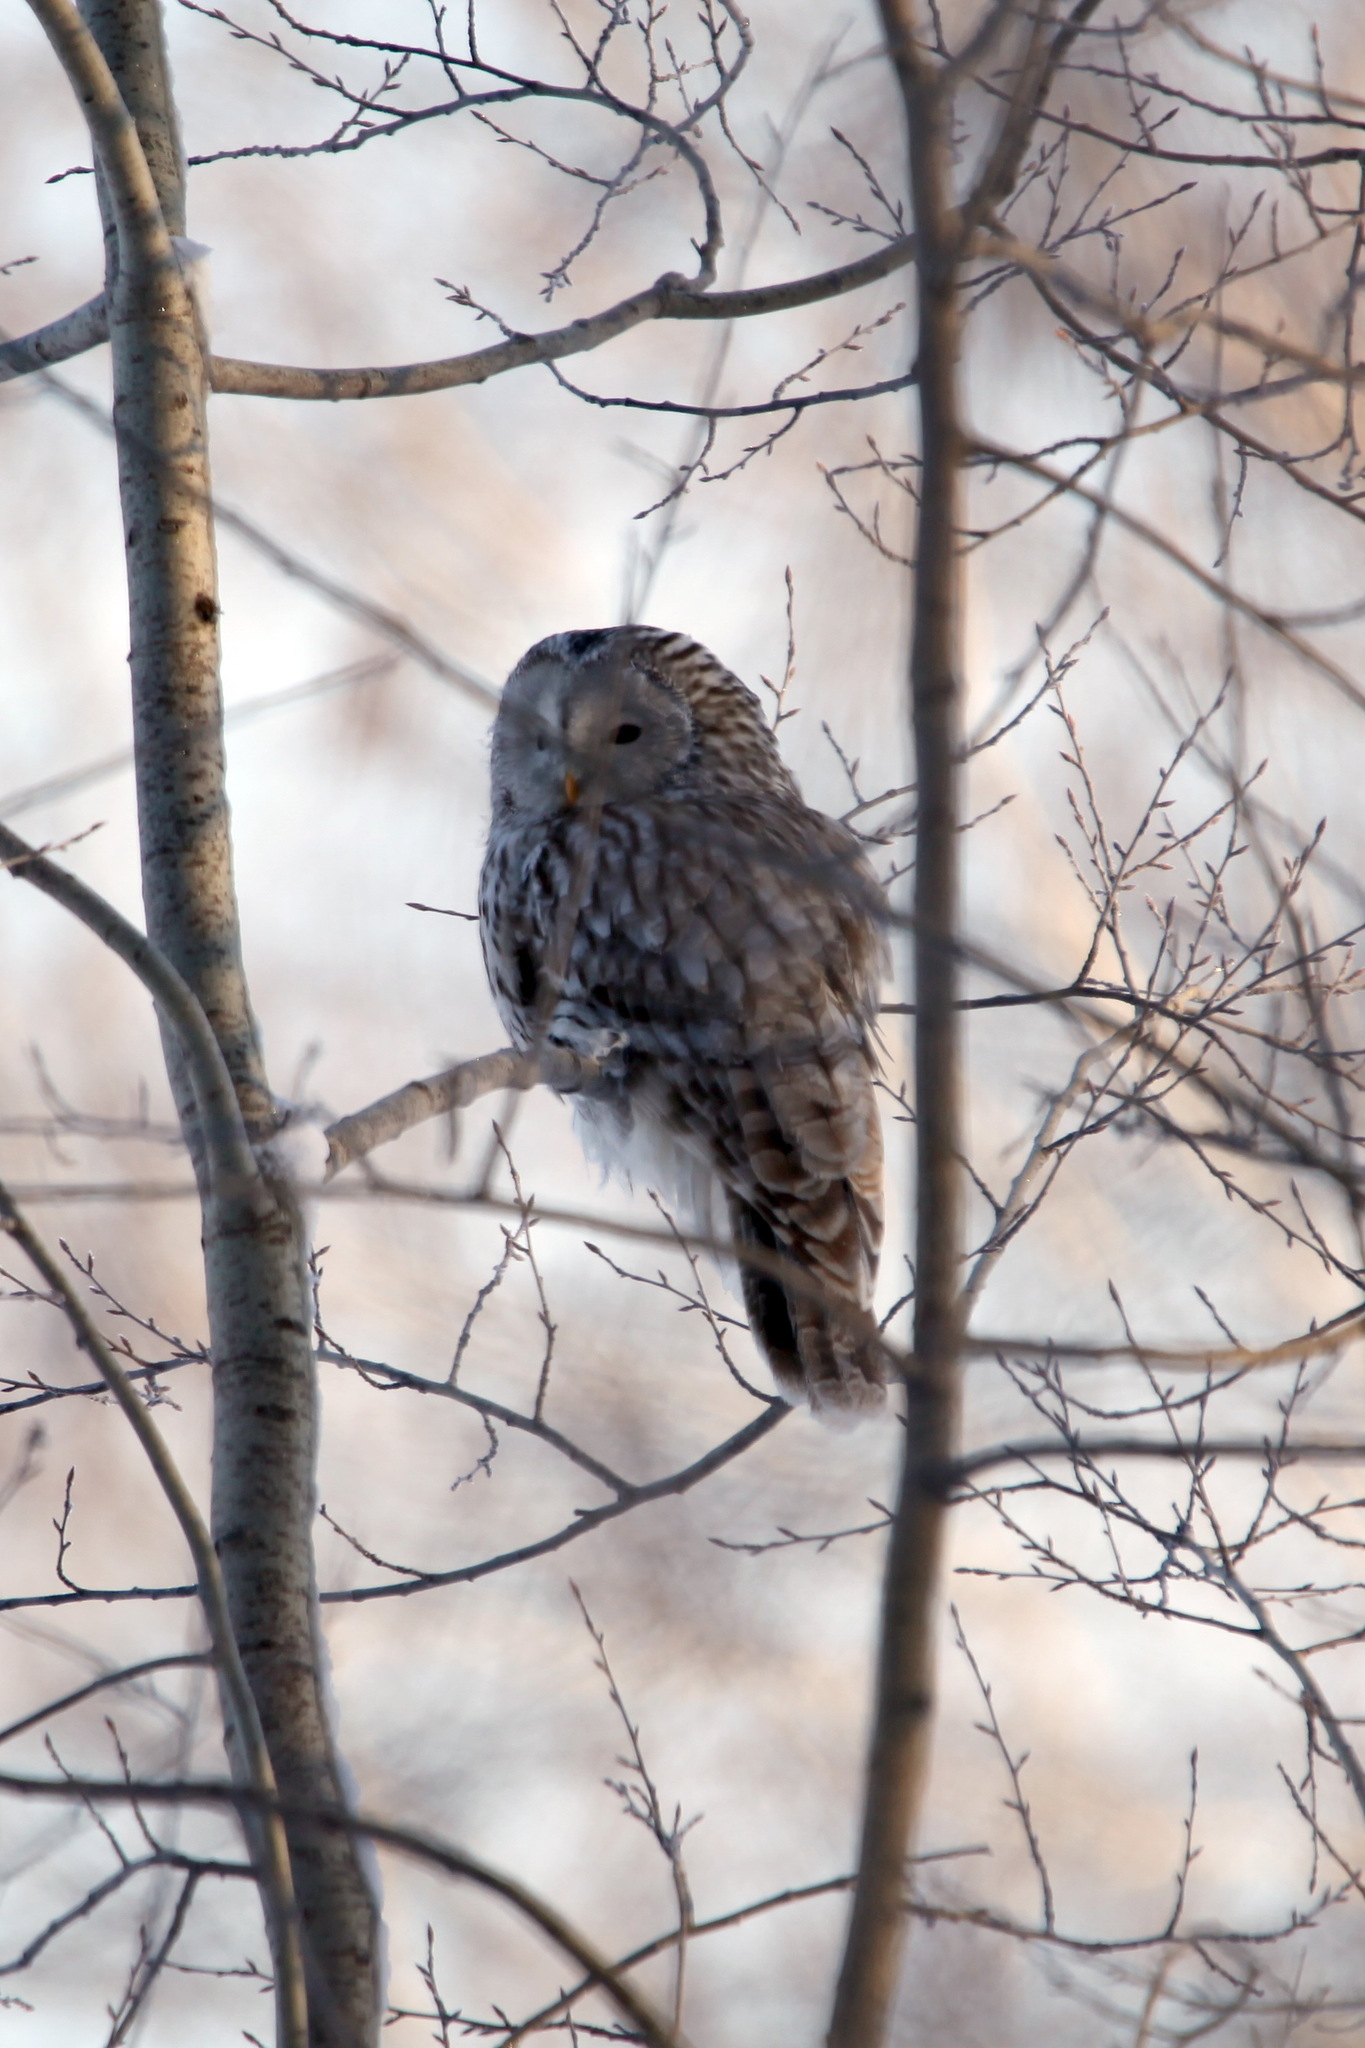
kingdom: Animalia
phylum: Chordata
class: Aves
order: Strigiformes
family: Strigidae
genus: Strix
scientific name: Strix uralensis
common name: Ural owl
